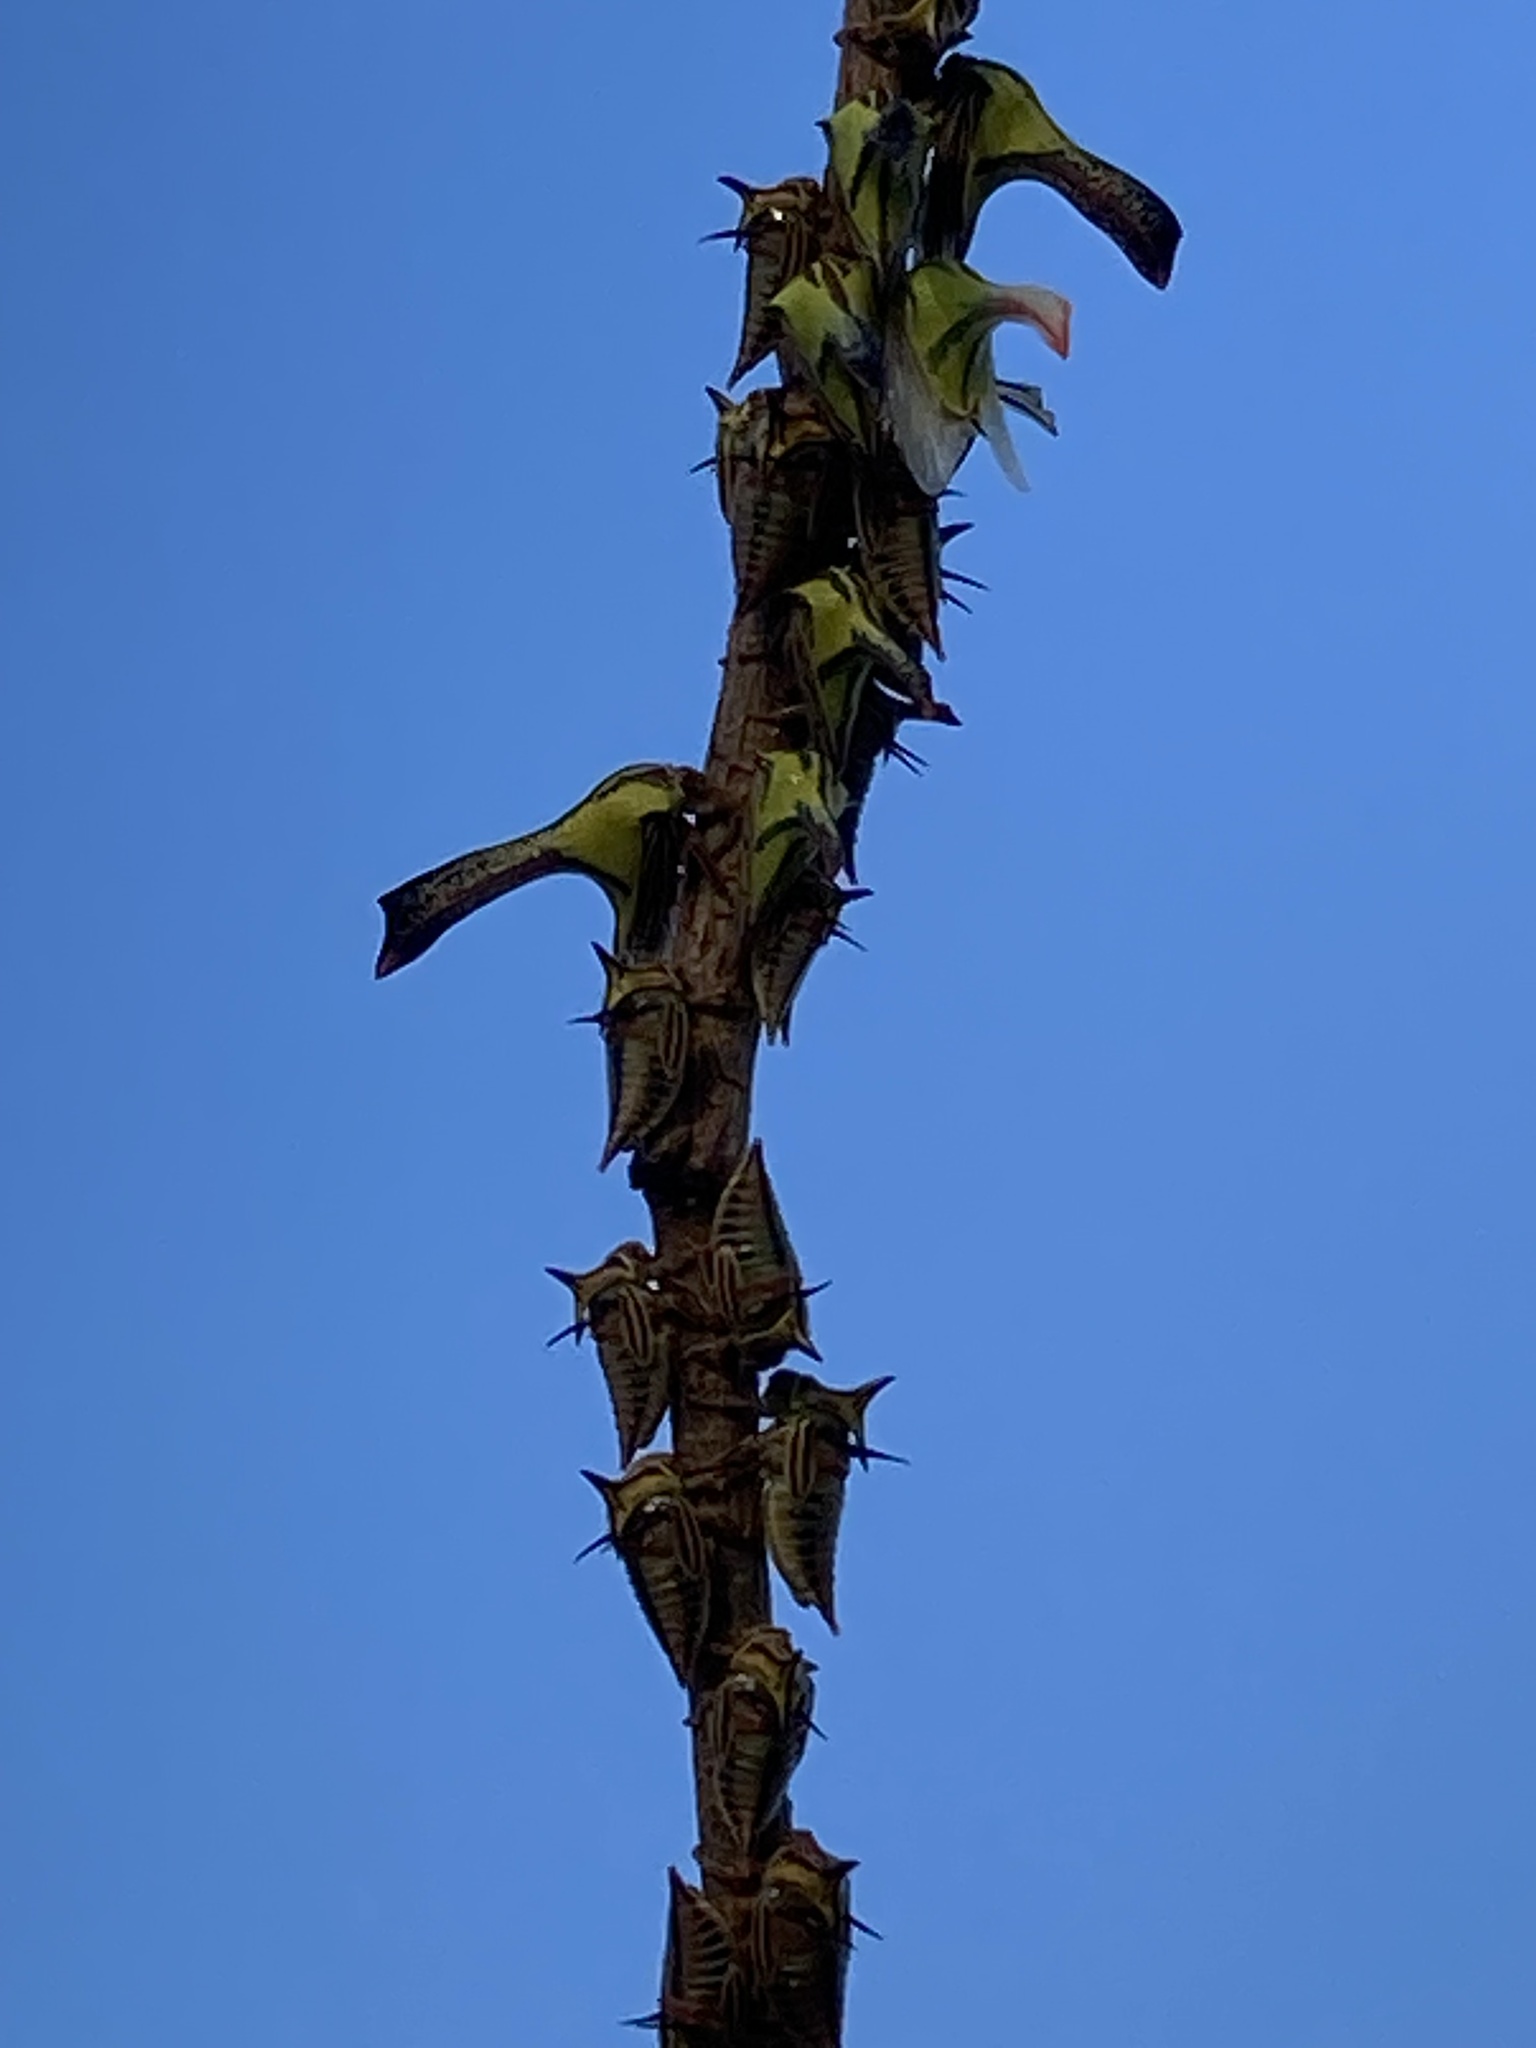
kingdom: Animalia
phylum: Arthropoda
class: Insecta
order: Hemiptera
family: Membracidae
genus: Umbonia
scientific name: Umbonia crassicornis
